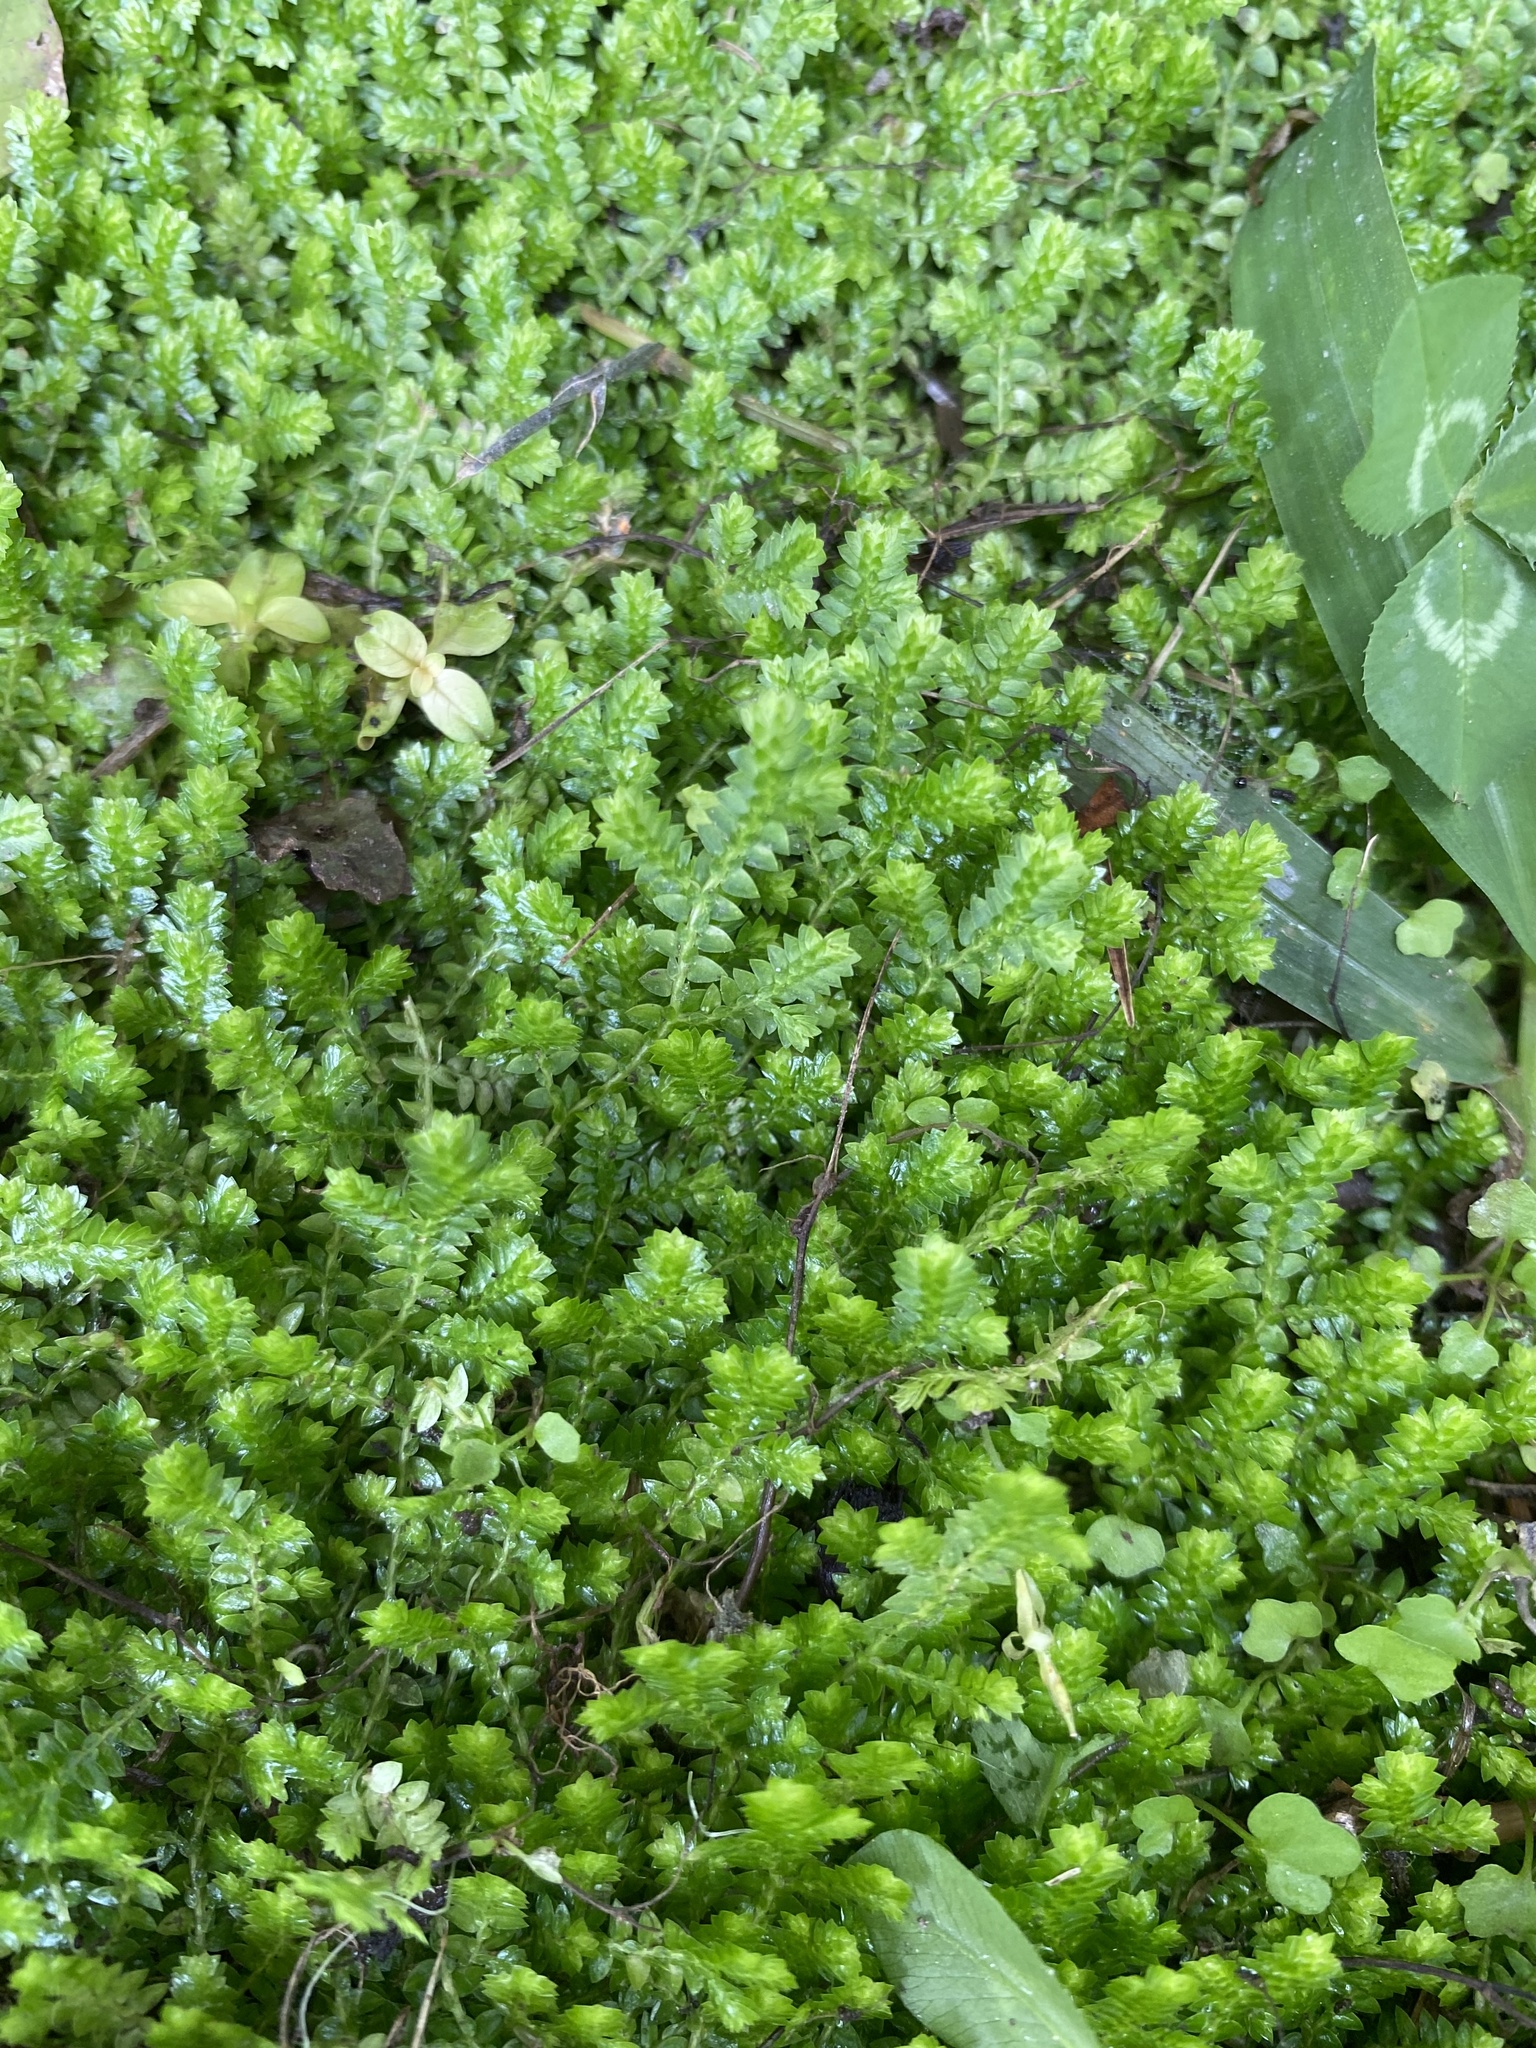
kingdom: Plantae
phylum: Tracheophyta
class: Lycopodiopsida
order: Selaginellales
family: Selaginellaceae
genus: Selaginella
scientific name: Selaginella ludoviciana
